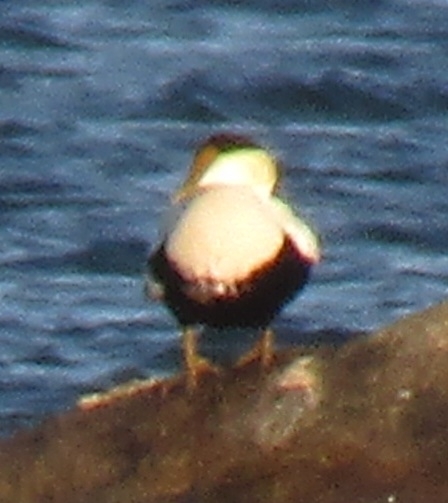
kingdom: Animalia
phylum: Chordata
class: Aves
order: Anseriformes
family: Anatidae
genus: Somateria
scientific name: Somateria mollissima
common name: Common eider
